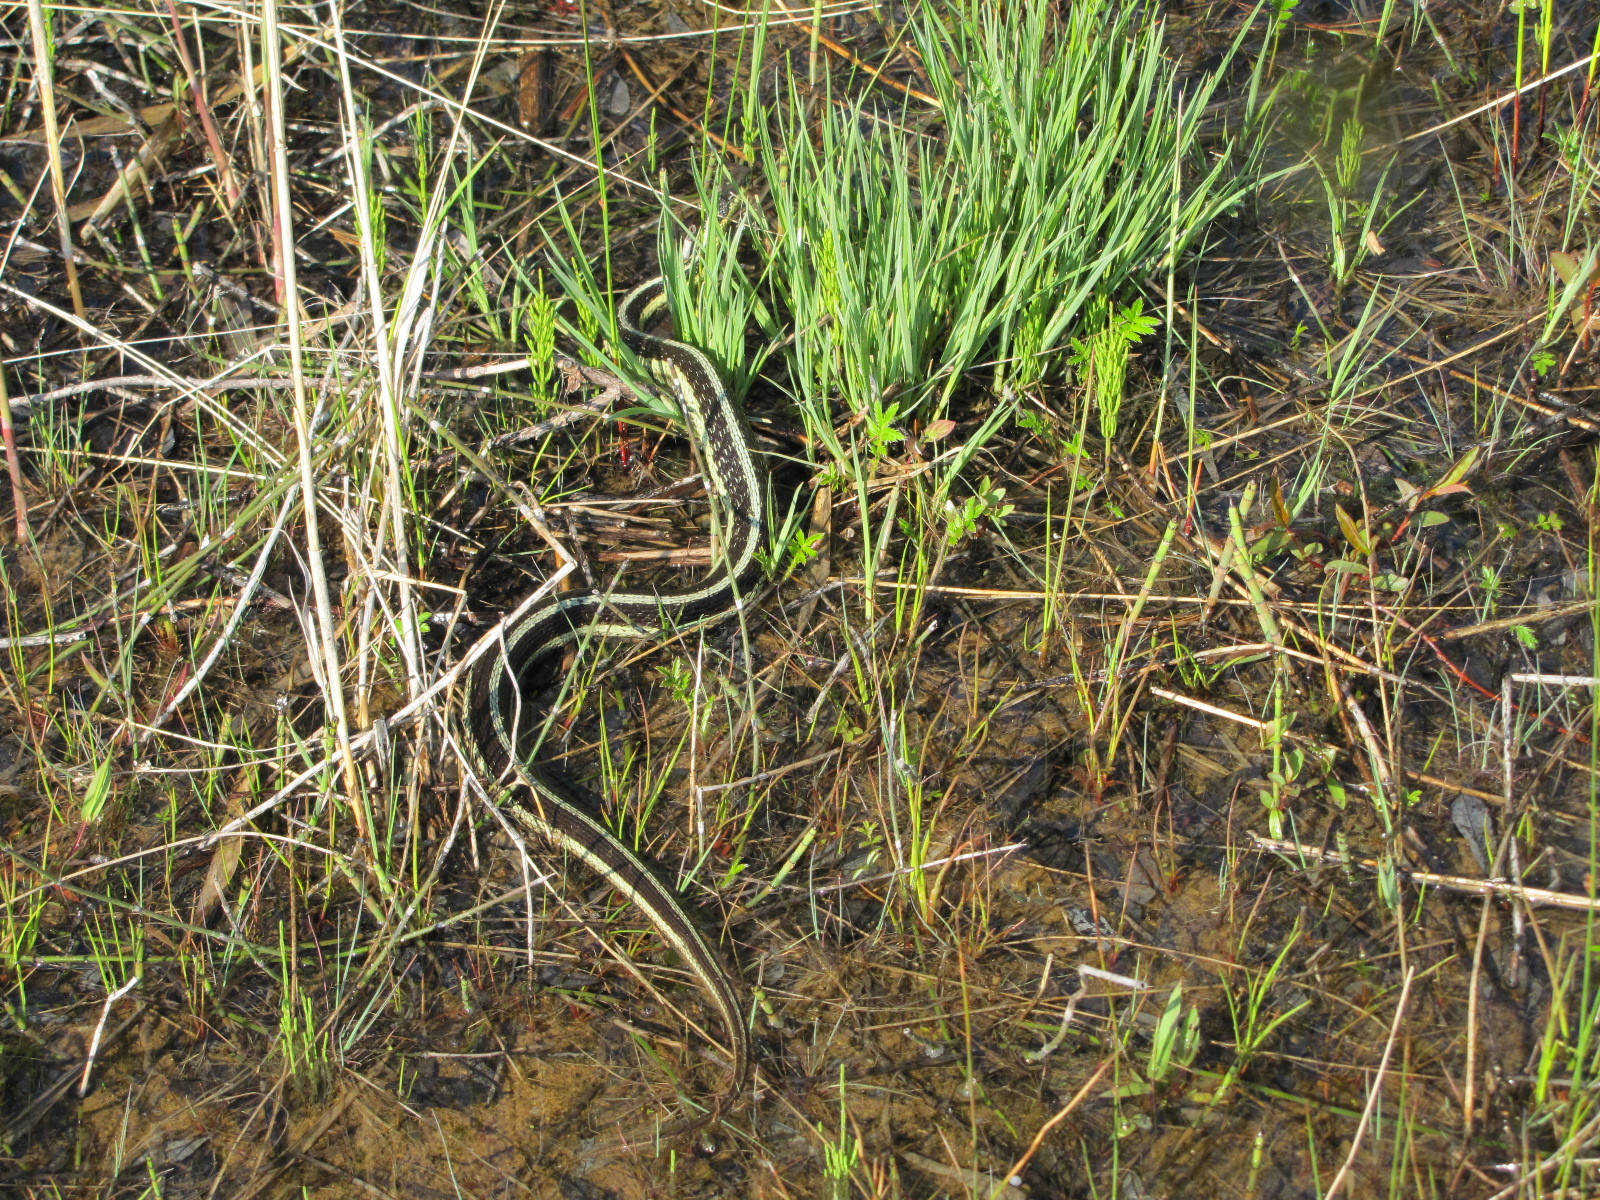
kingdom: Animalia
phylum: Chordata
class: Squamata
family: Colubridae
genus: Thamnophis
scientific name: Thamnophis sirtalis
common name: Common garter snake
